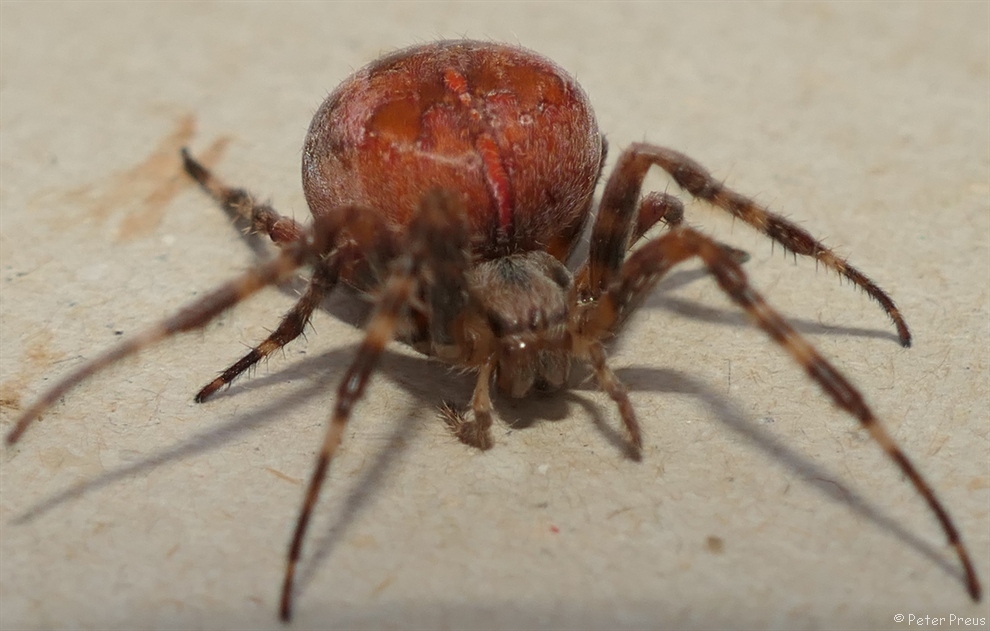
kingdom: Animalia
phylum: Arthropoda
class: Arachnida
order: Araneae
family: Araneidae
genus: Araneus
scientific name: Araneus diadematus
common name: Cross orbweaver
